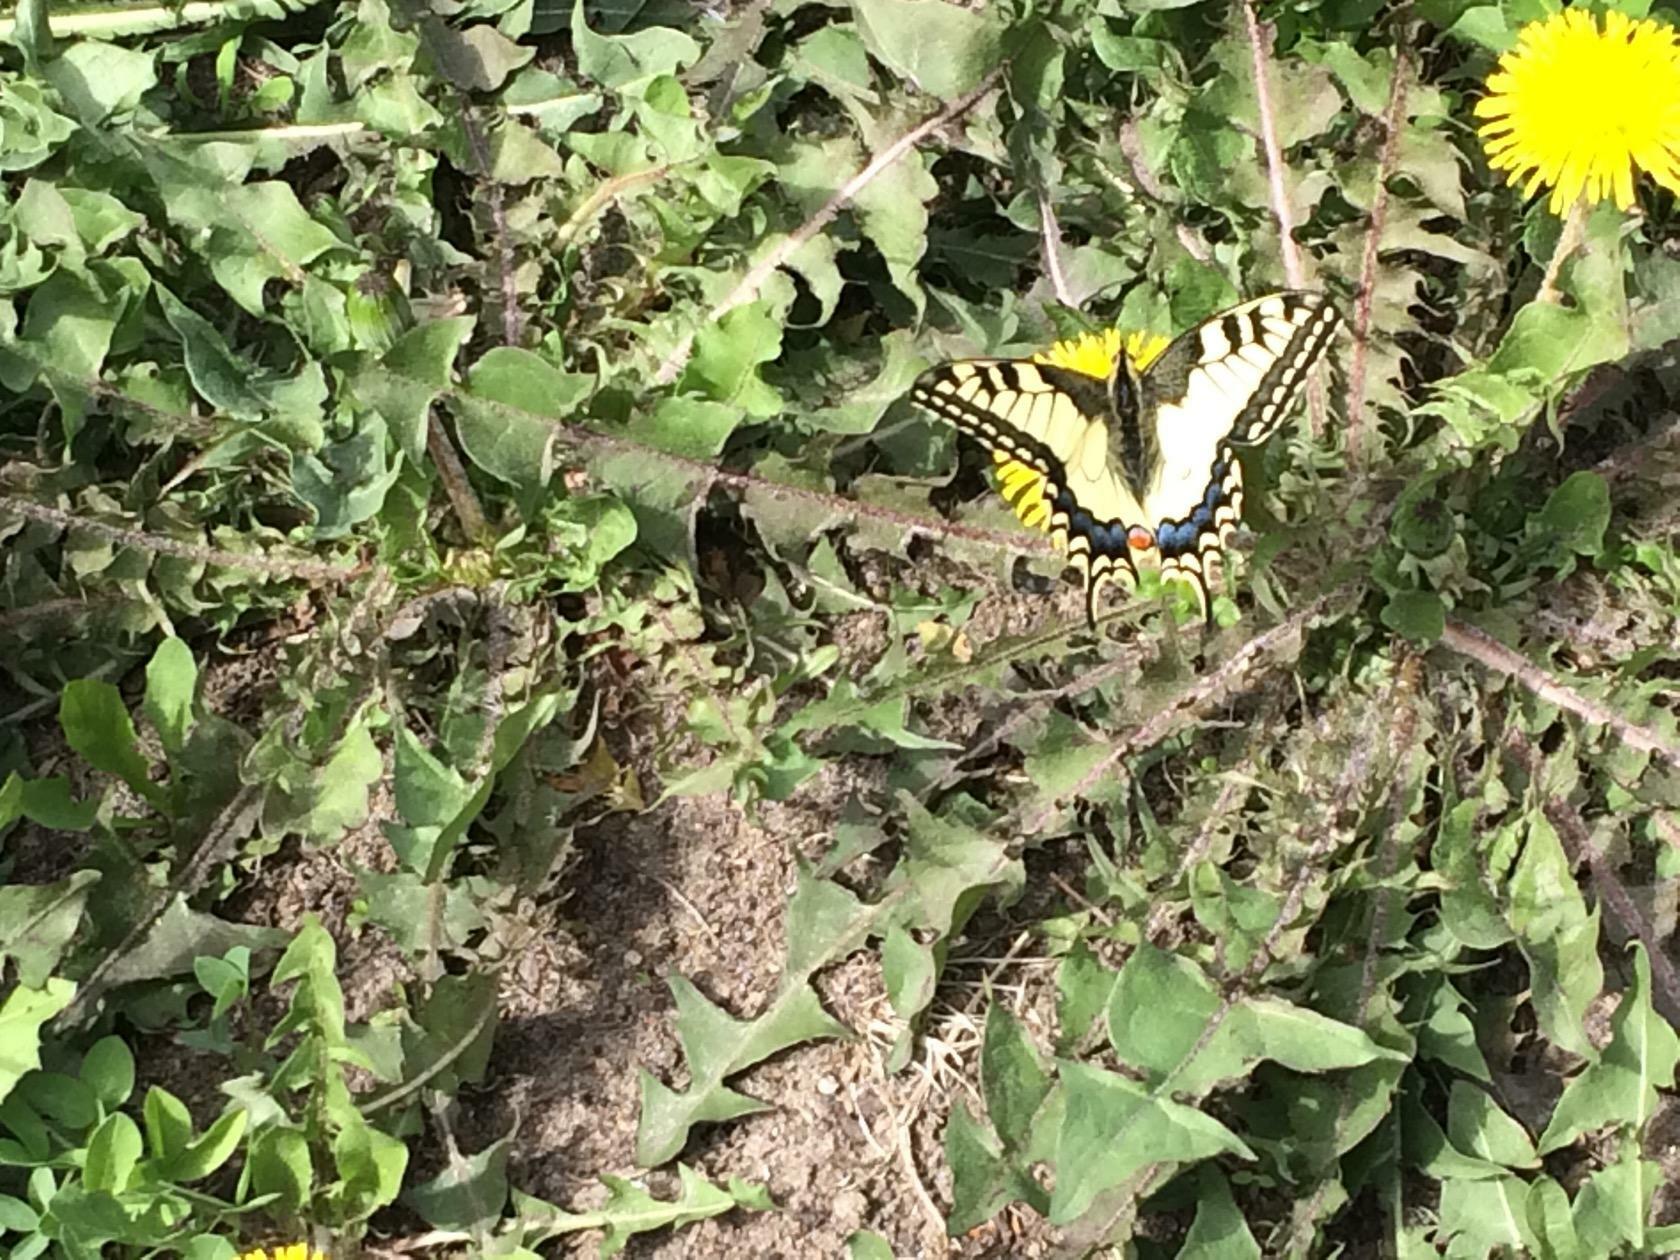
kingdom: Animalia
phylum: Arthropoda
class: Insecta
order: Lepidoptera
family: Papilionidae
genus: Papilio
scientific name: Papilio machaon
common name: Swallowtail
